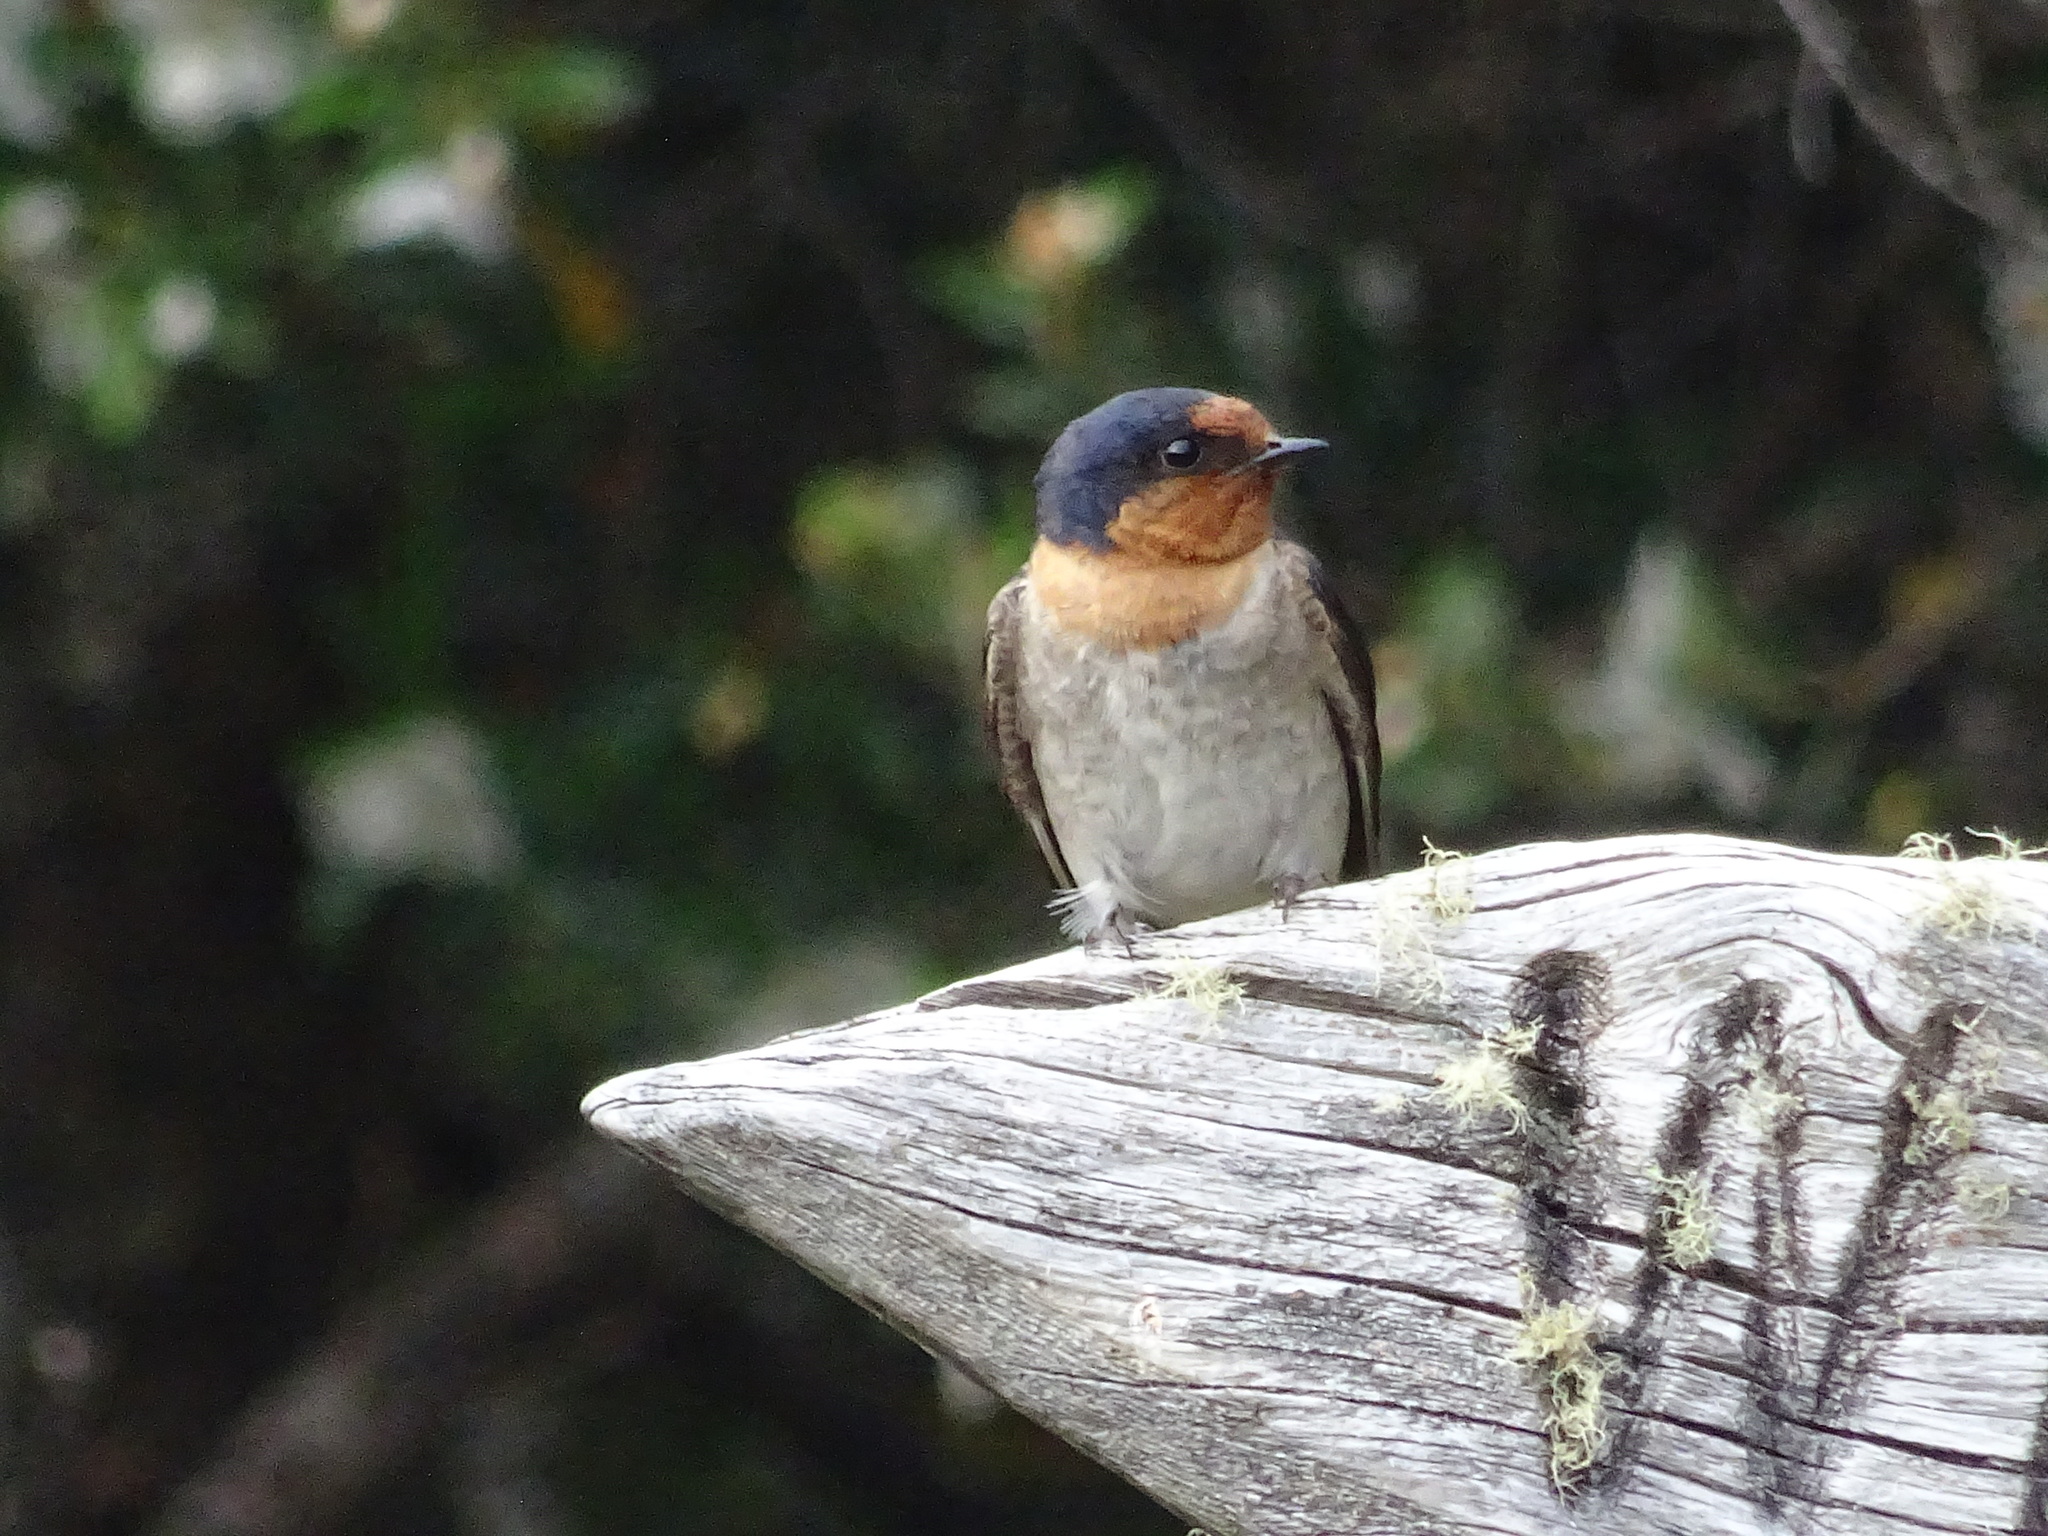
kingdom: Animalia
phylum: Chordata
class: Aves
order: Passeriformes
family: Hirundinidae
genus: Hirundo
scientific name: Hirundo neoxena
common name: Welcome swallow
